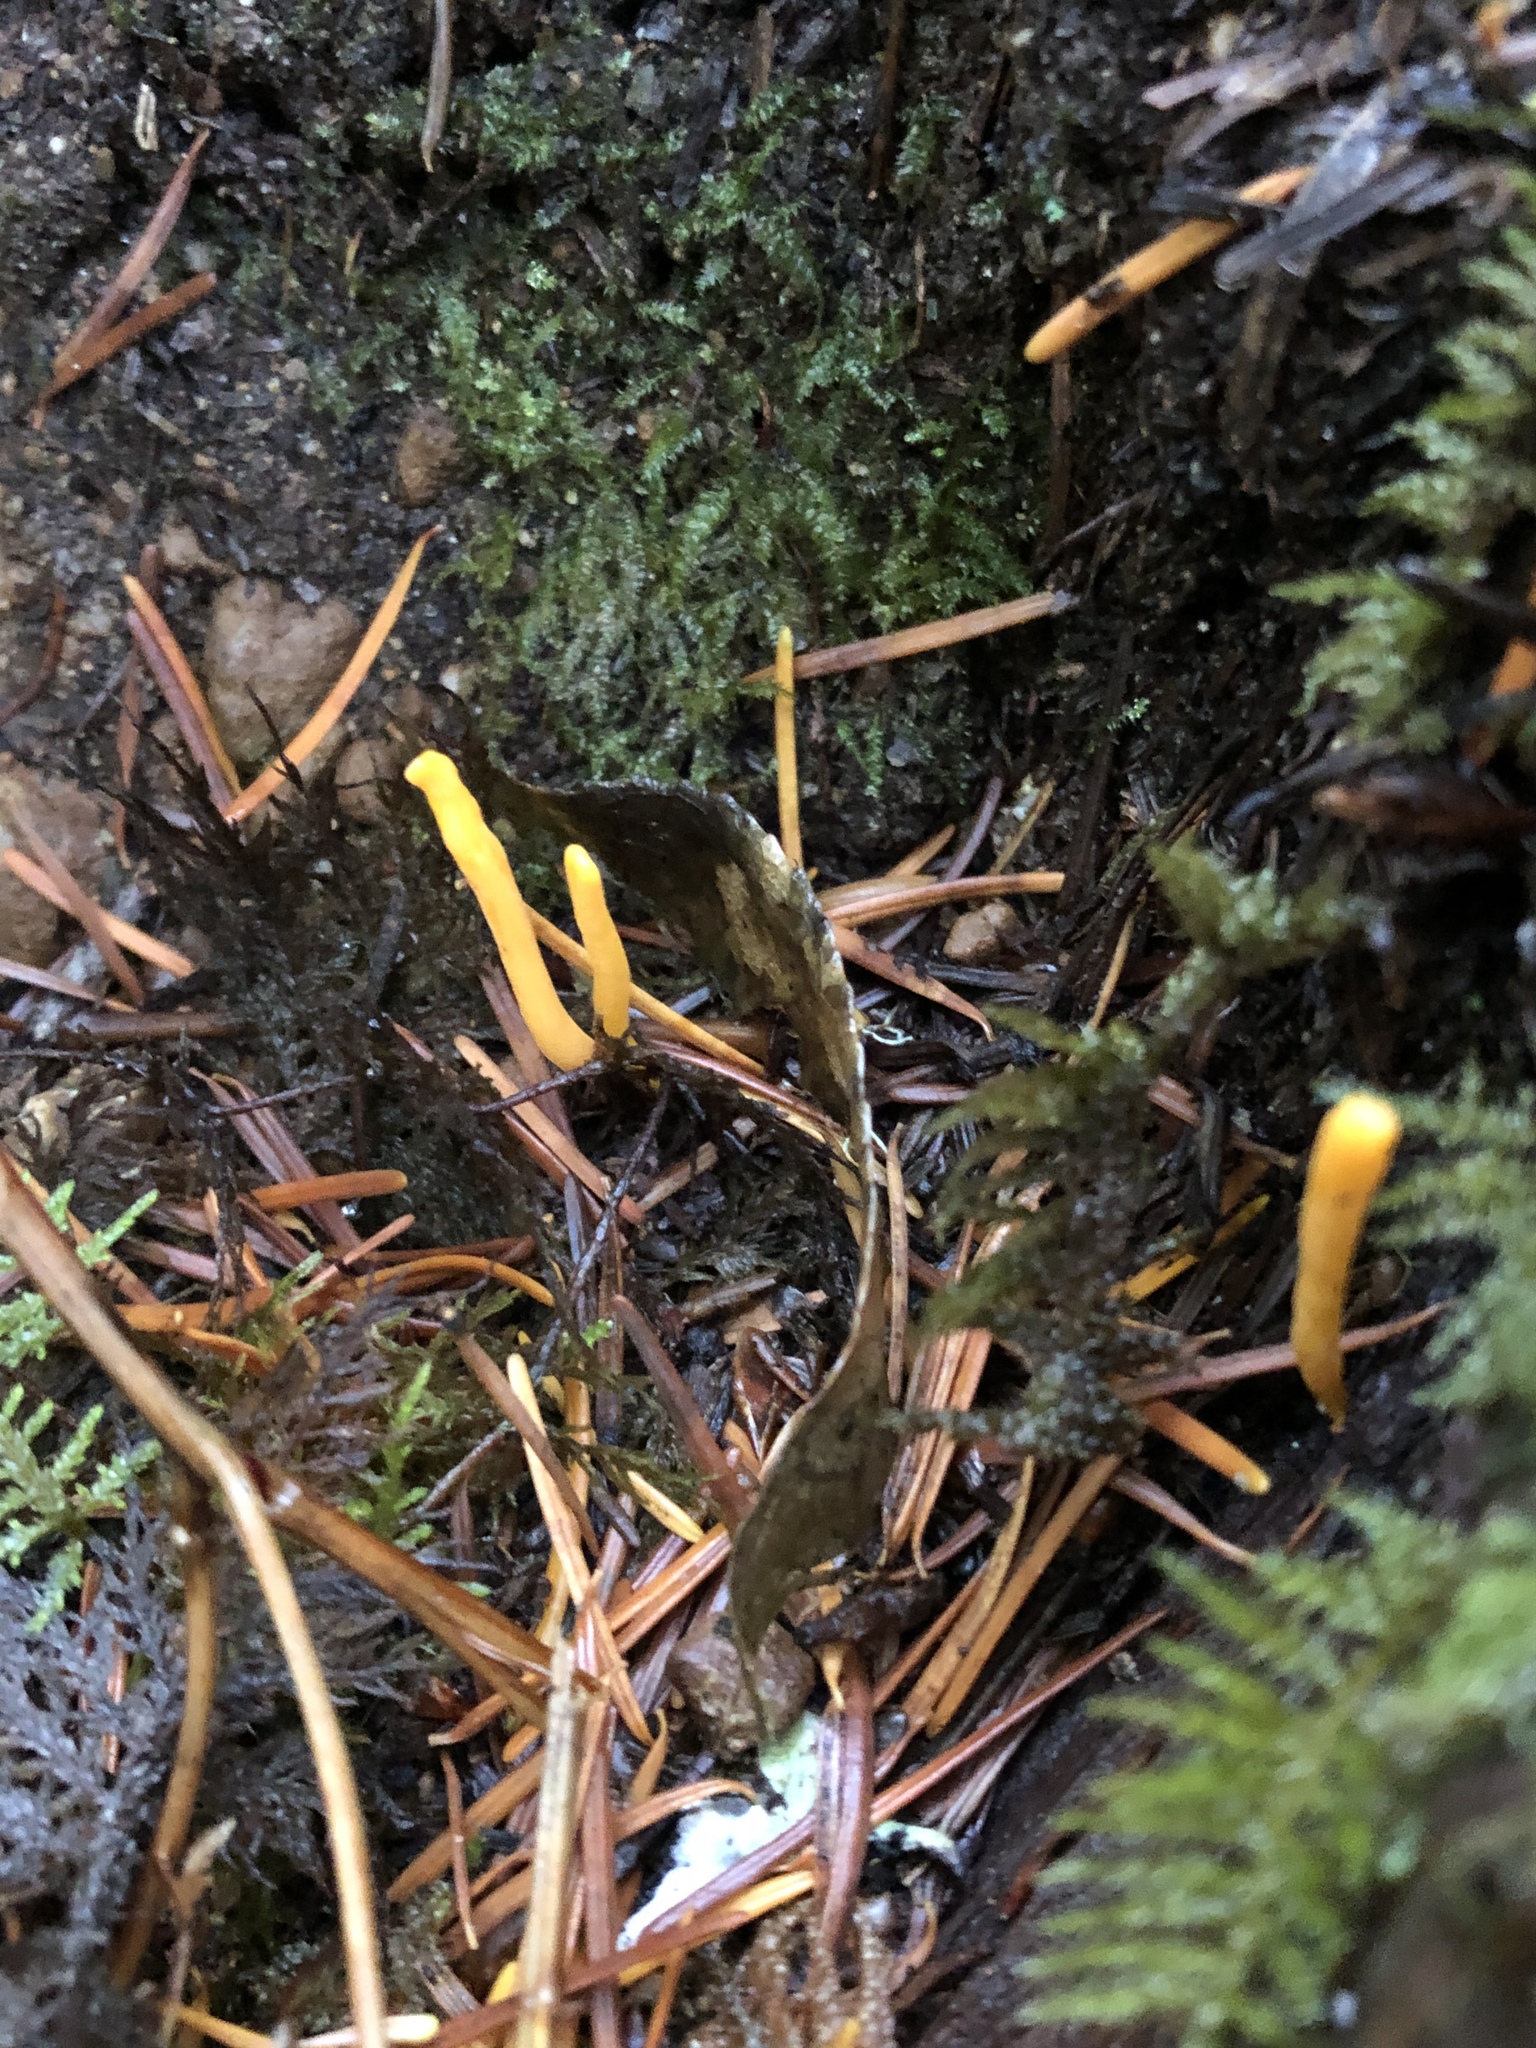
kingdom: Fungi
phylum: Basidiomycota
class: Agaricomycetes
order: Agaricales
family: Clavariaceae
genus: Clavulinopsis
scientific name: Clavulinopsis laeticolor
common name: Handsome club
